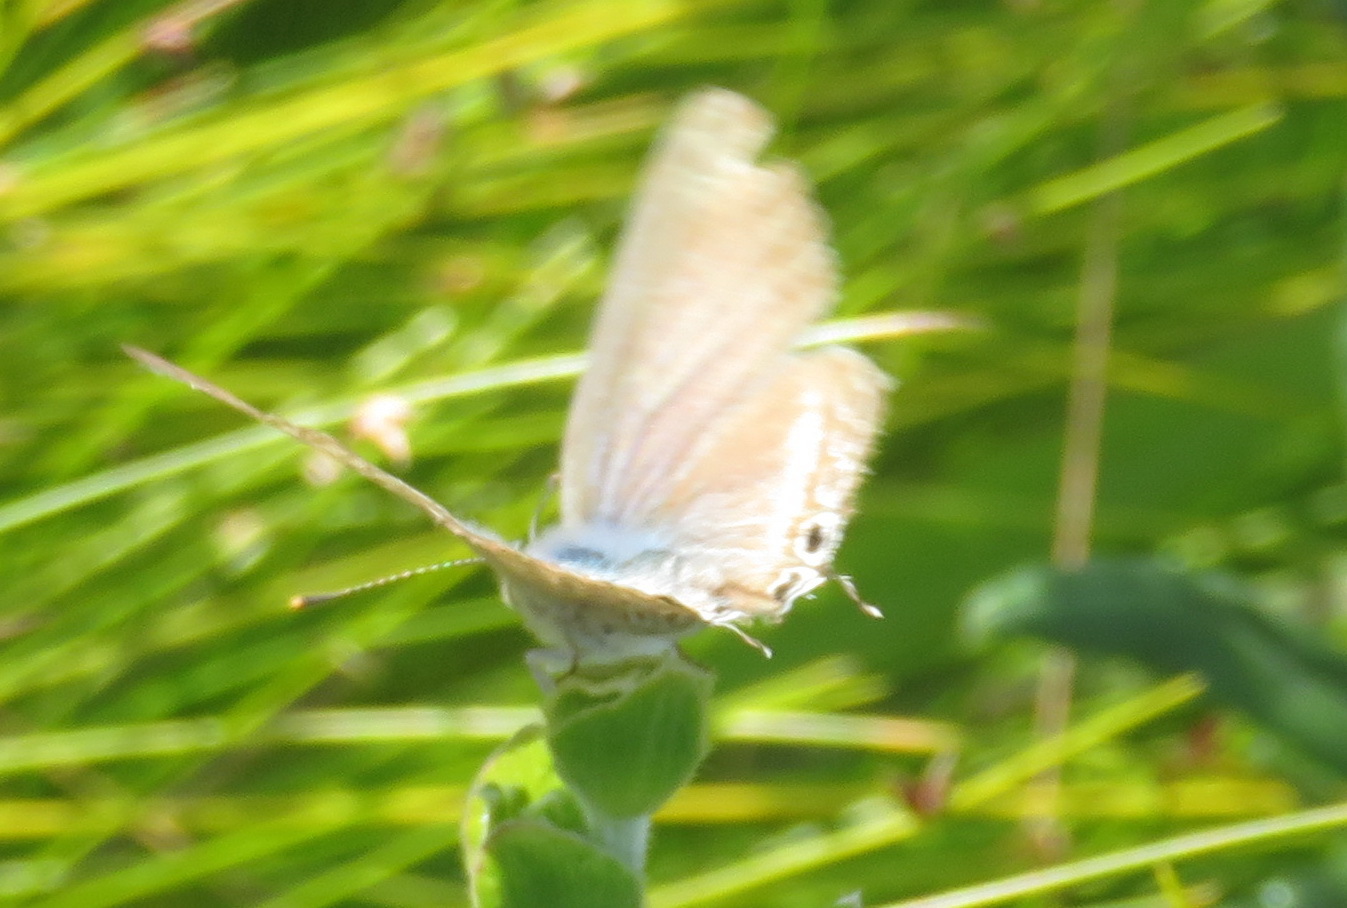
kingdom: Animalia
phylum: Arthropoda
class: Insecta
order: Lepidoptera
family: Lycaenidae
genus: Lampides
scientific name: Lampides boeticus
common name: Long-tailed blue
